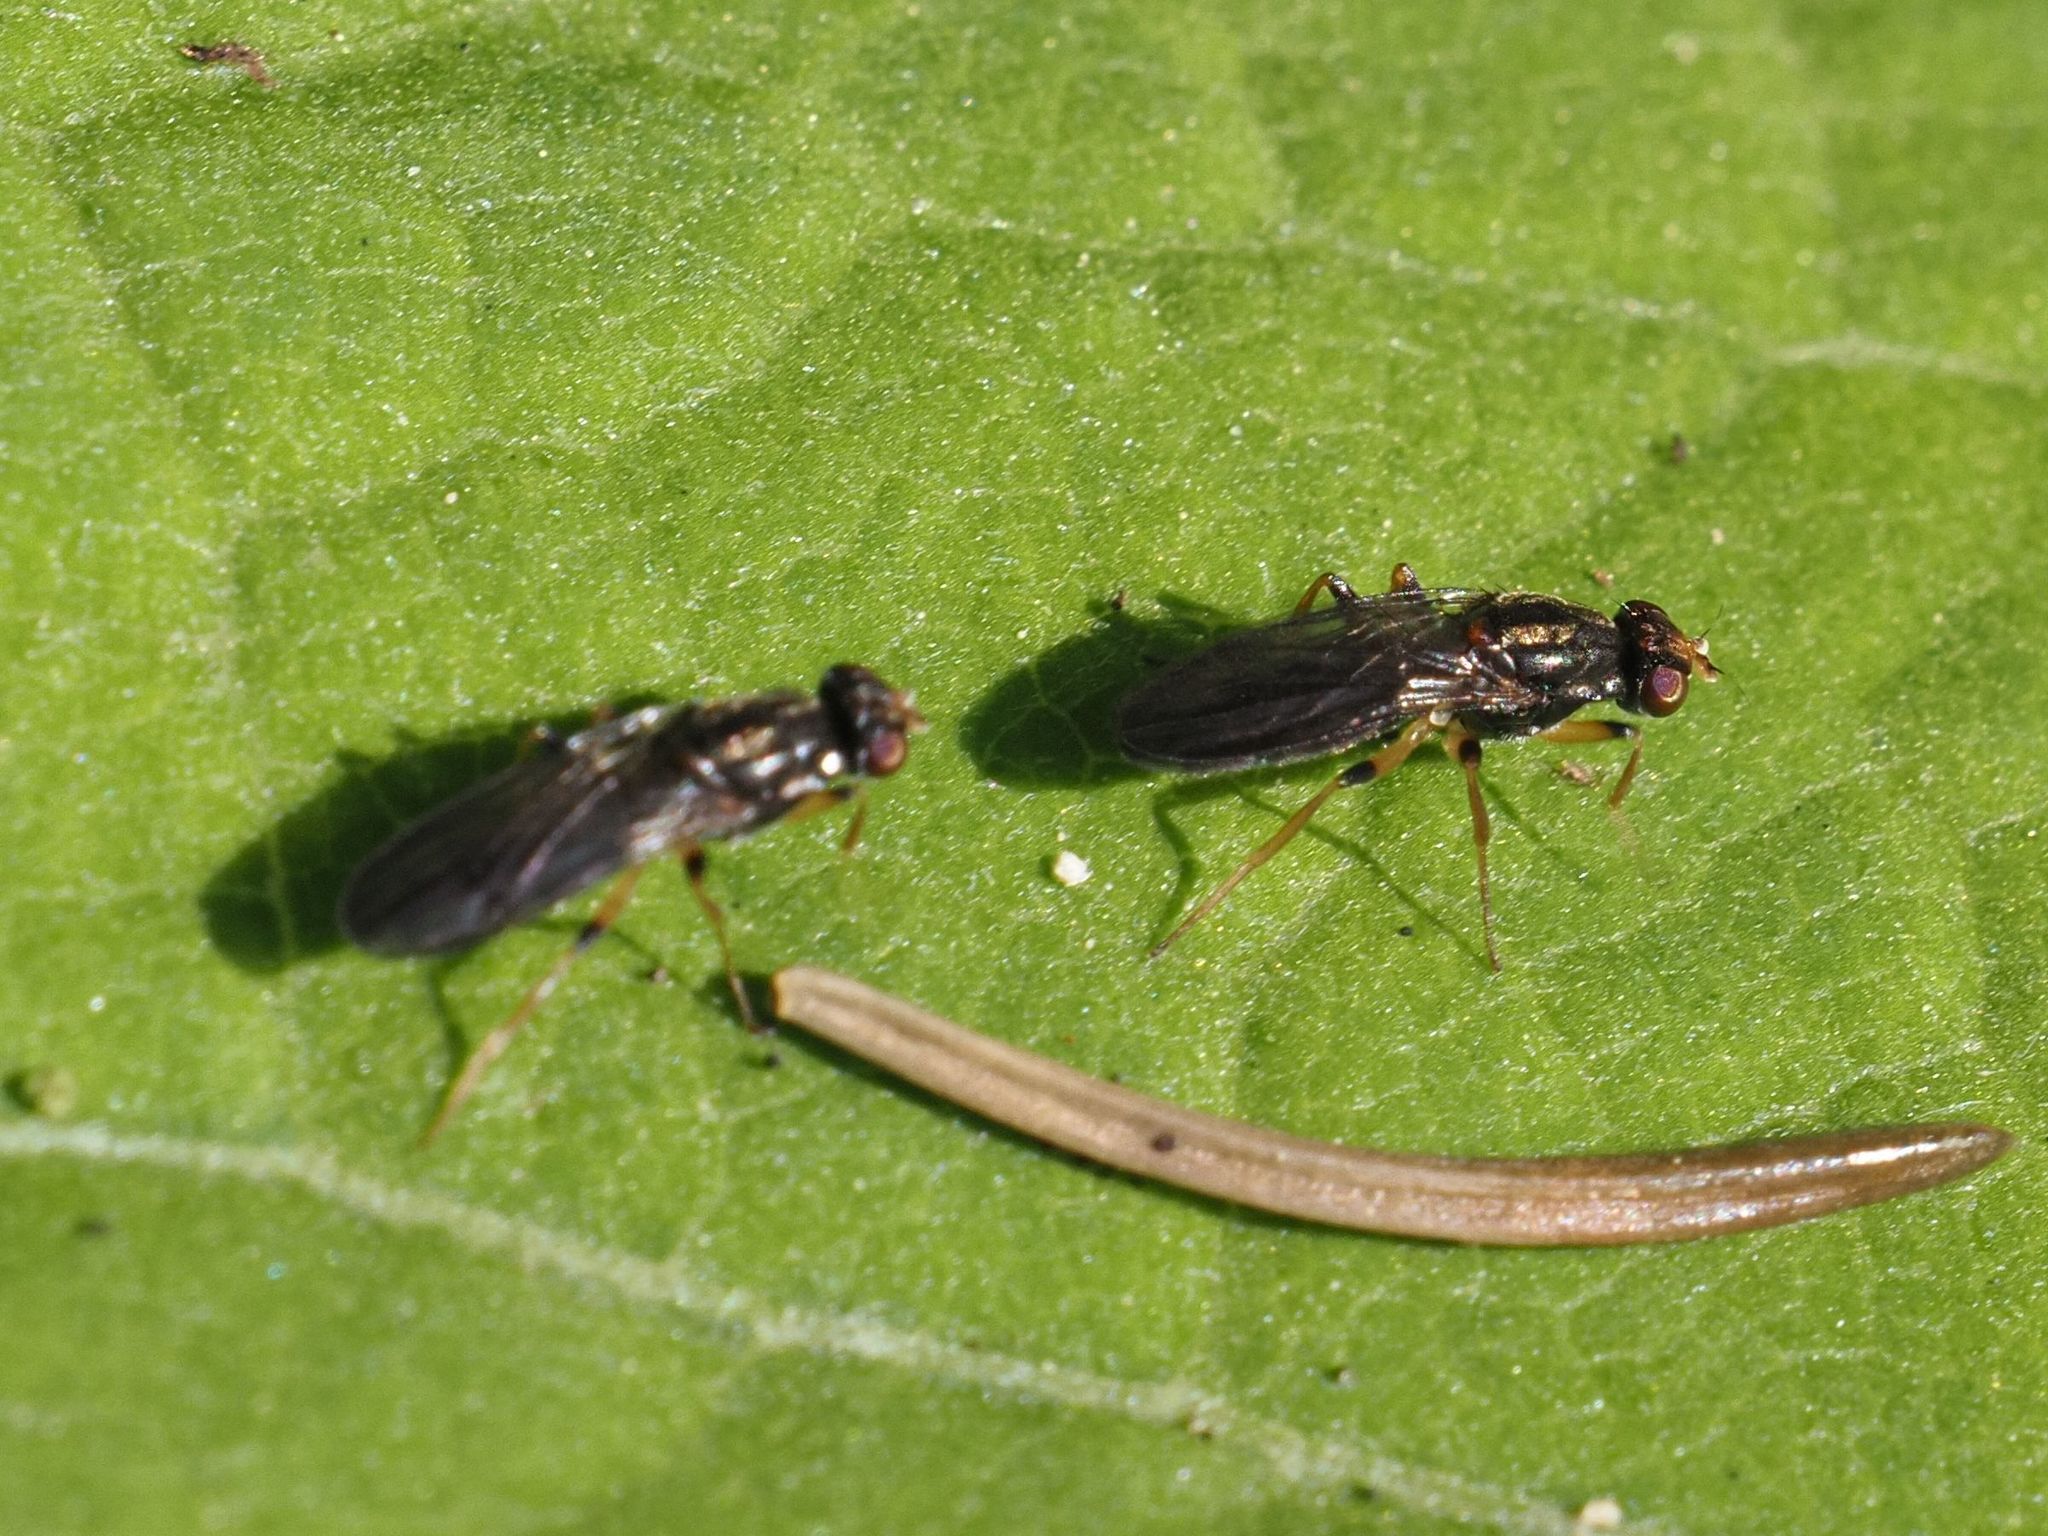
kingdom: Animalia
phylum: Arthropoda
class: Insecta
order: Diptera
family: Psilidae
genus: Chyliza
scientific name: Chyliza annulipes
